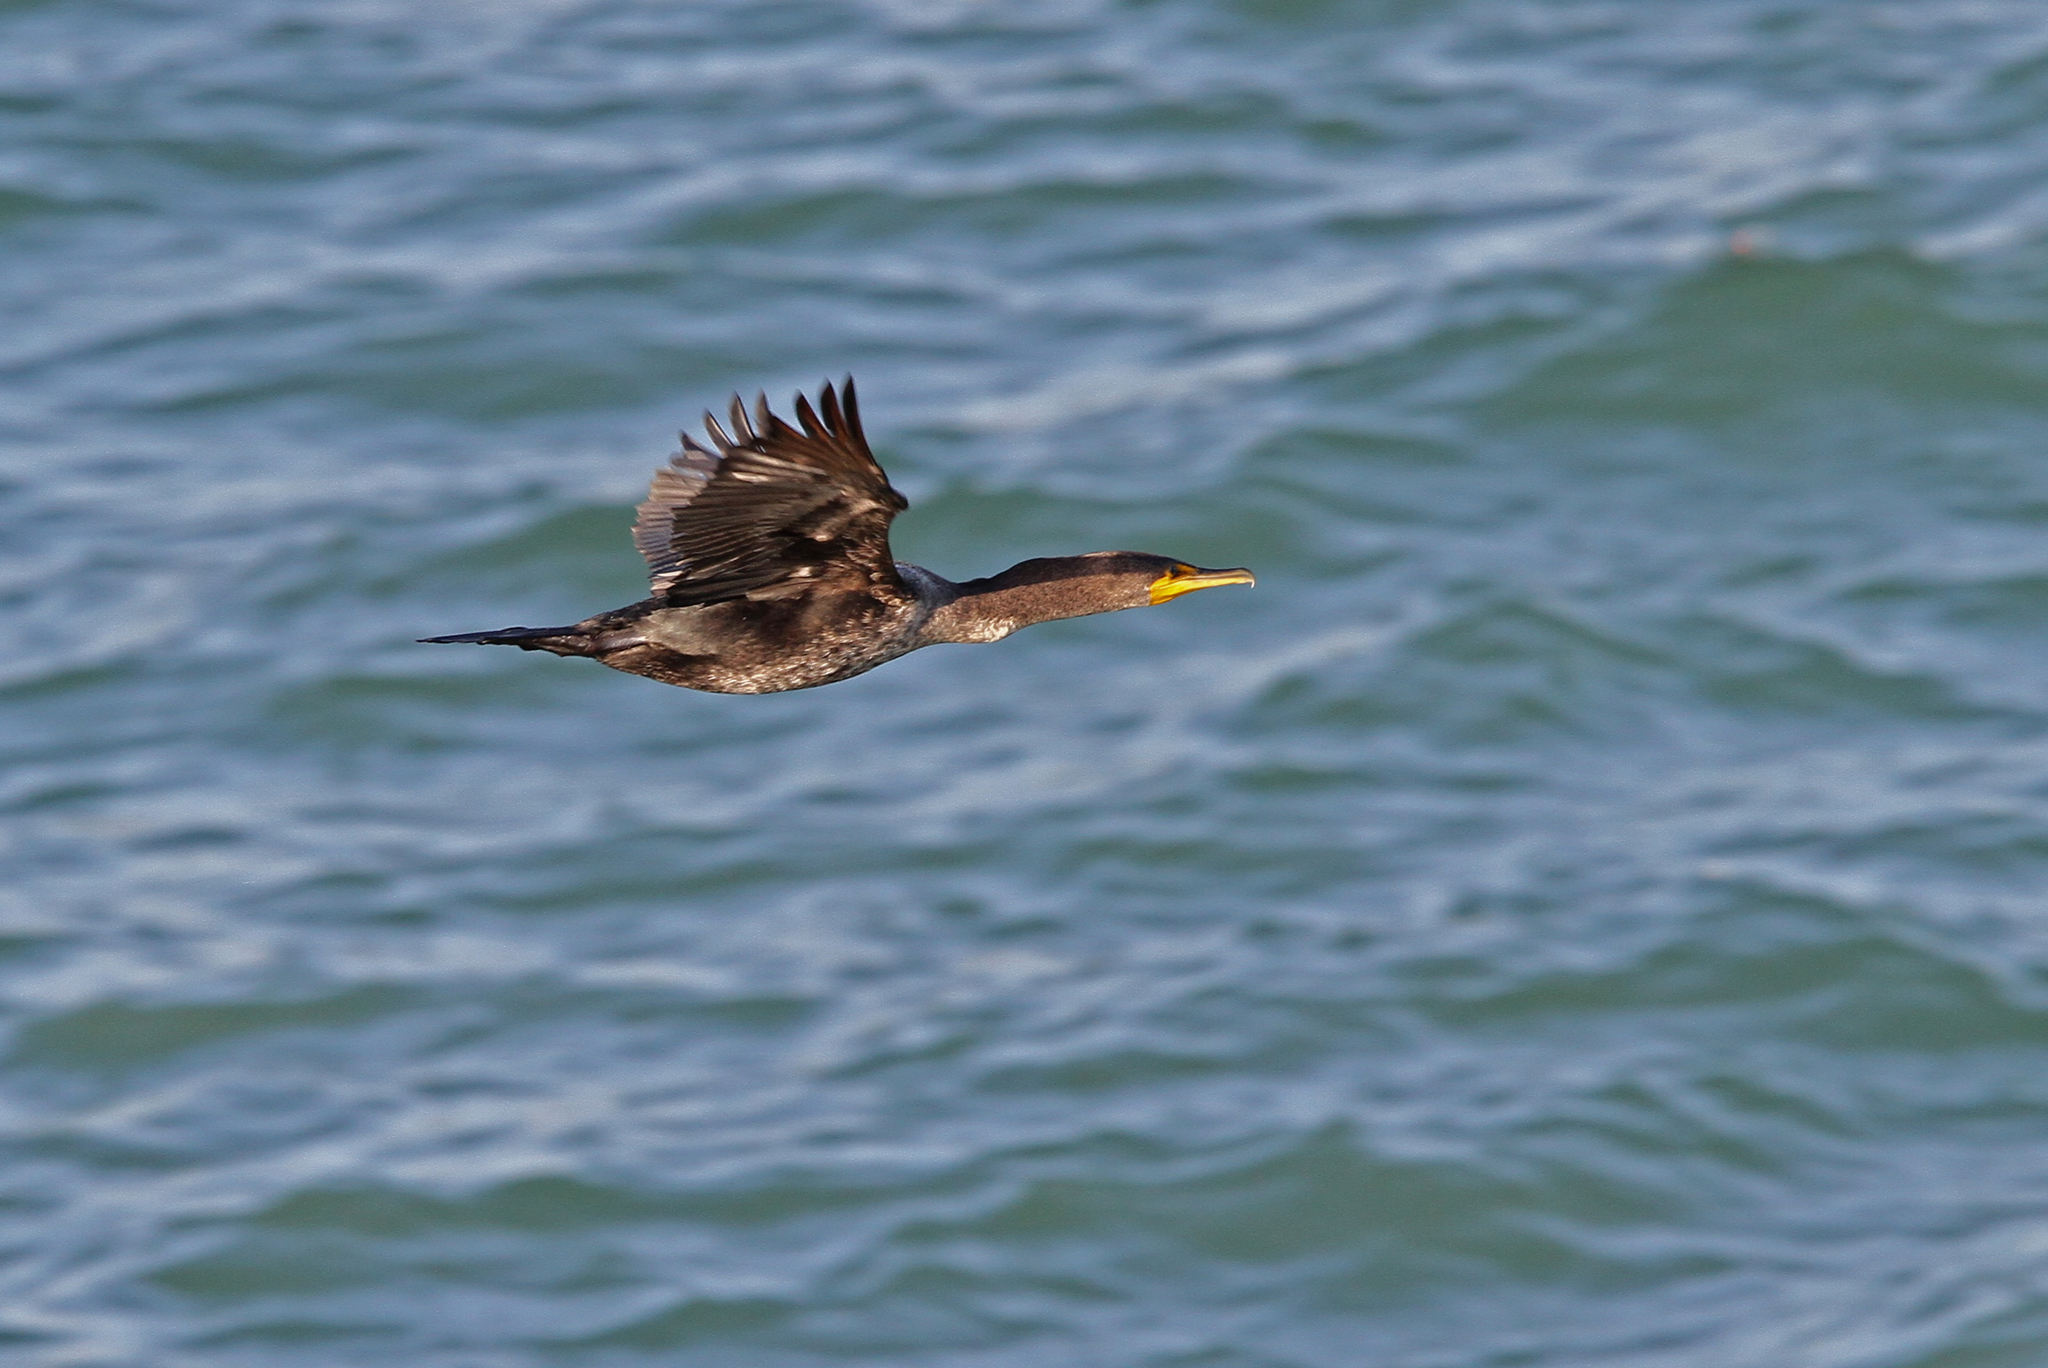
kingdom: Animalia
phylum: Chordata
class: Aves
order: Suliformes
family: Phalacrocoracidae
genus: Phalacrocorax
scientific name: Phalacrocorax auritus
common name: Double-crested cormorant
